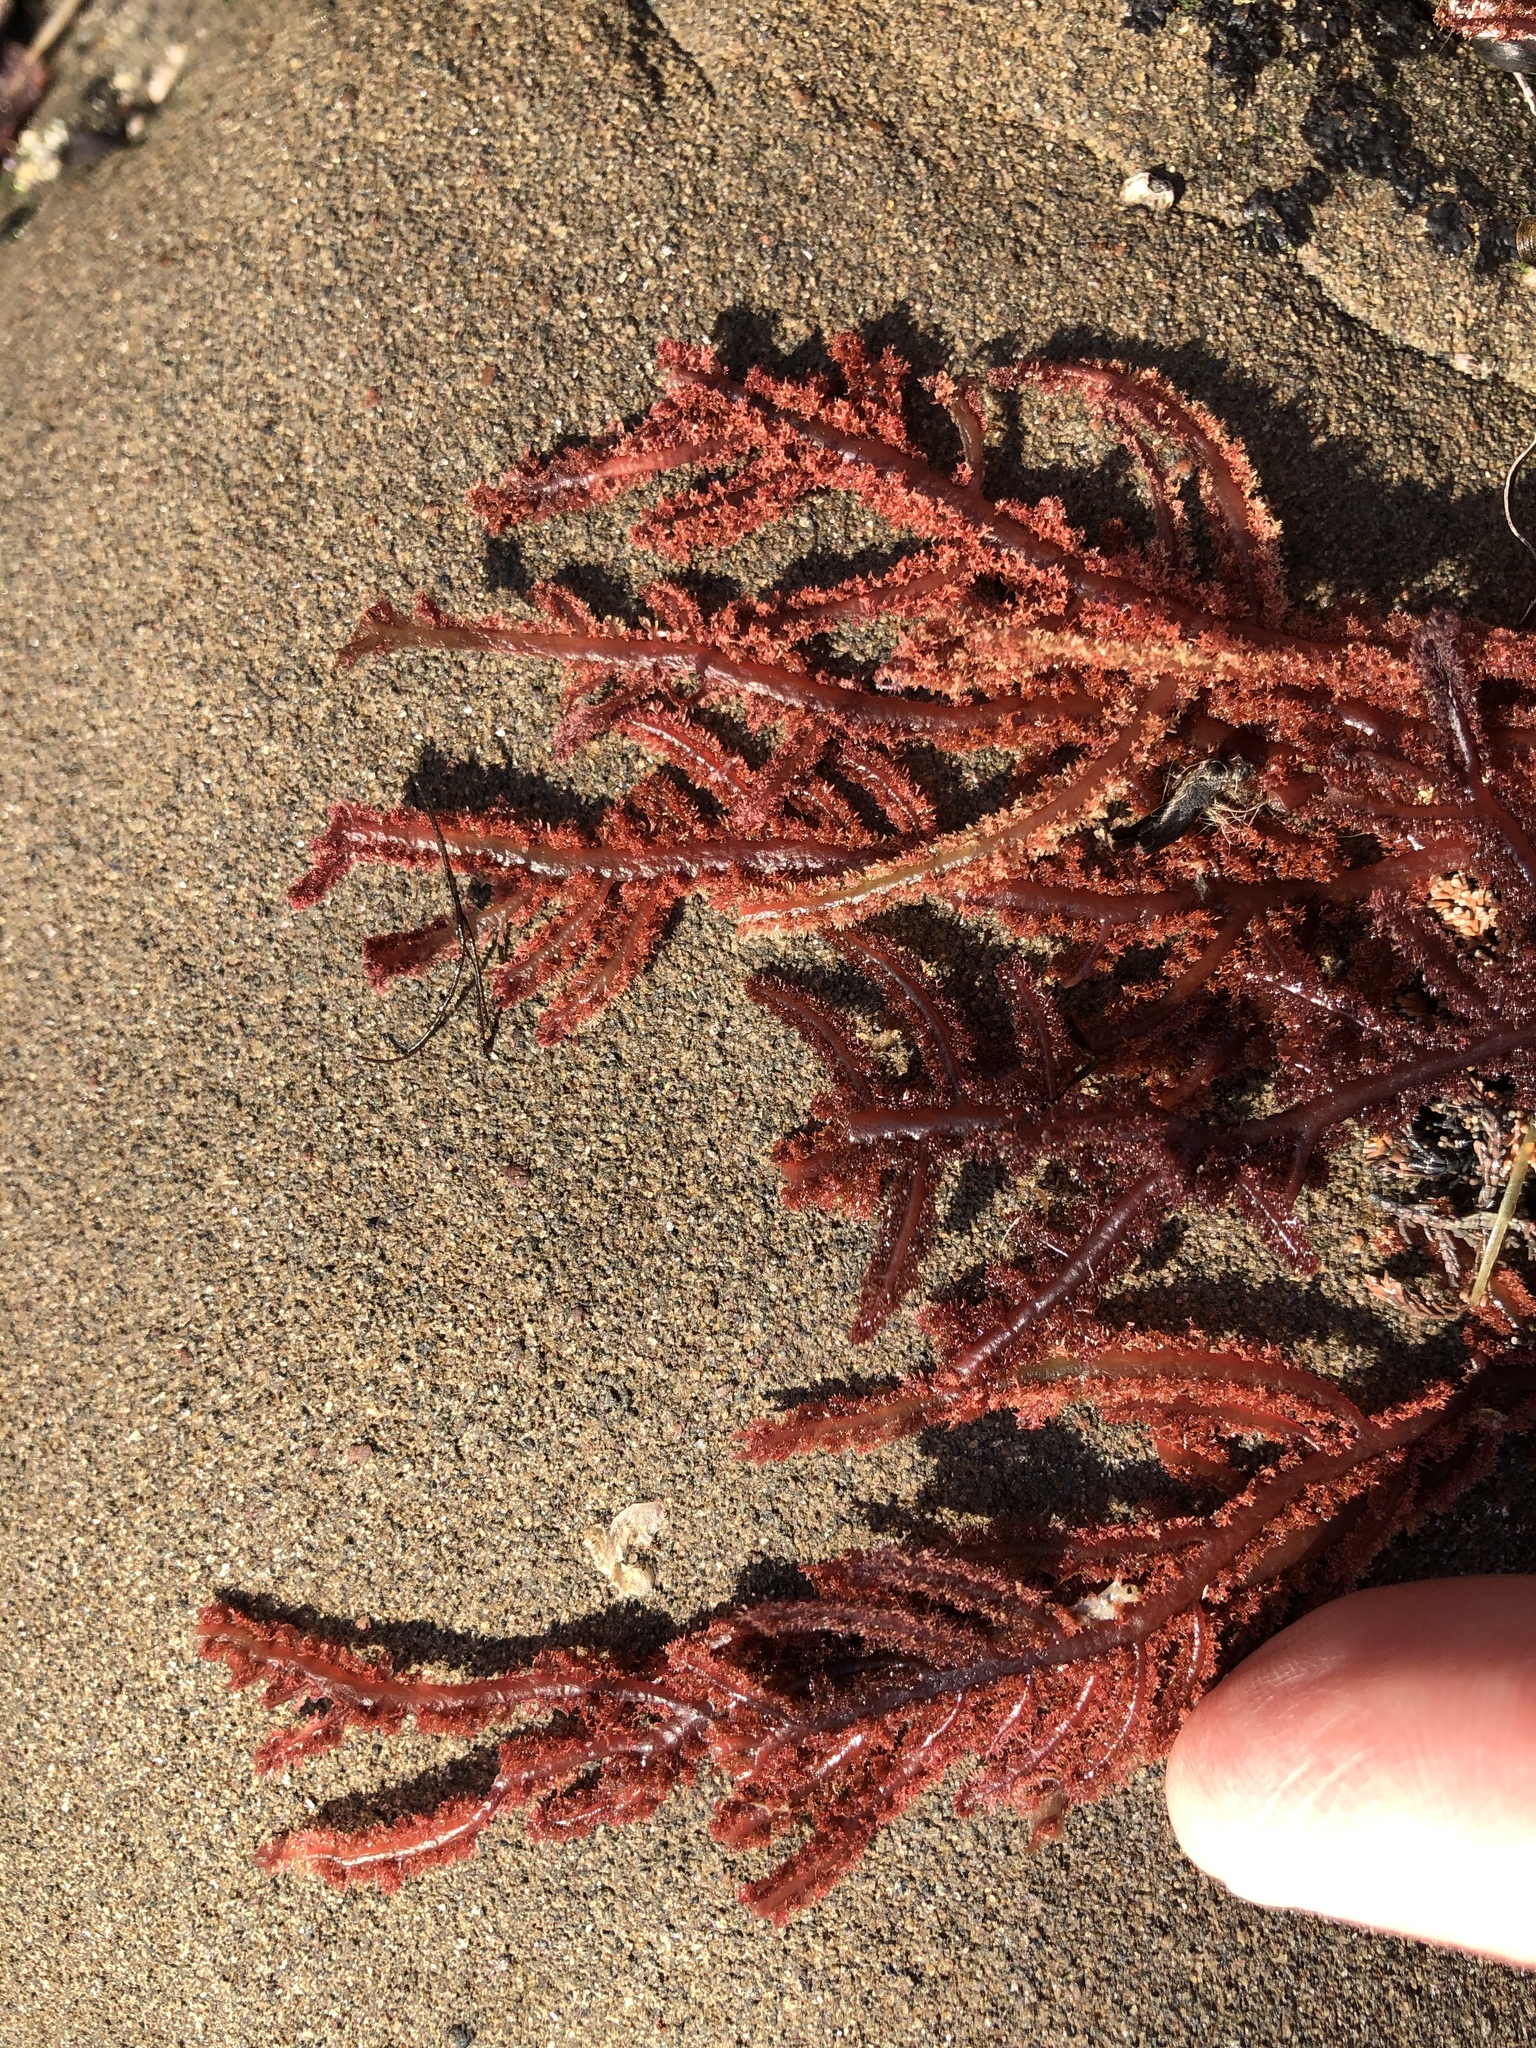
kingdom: Plantae
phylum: Rhodophyta
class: Florideophyceae
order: Ceramiales
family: Wrangeliaceae
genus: Neoptilota
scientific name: Neoptilota densa
